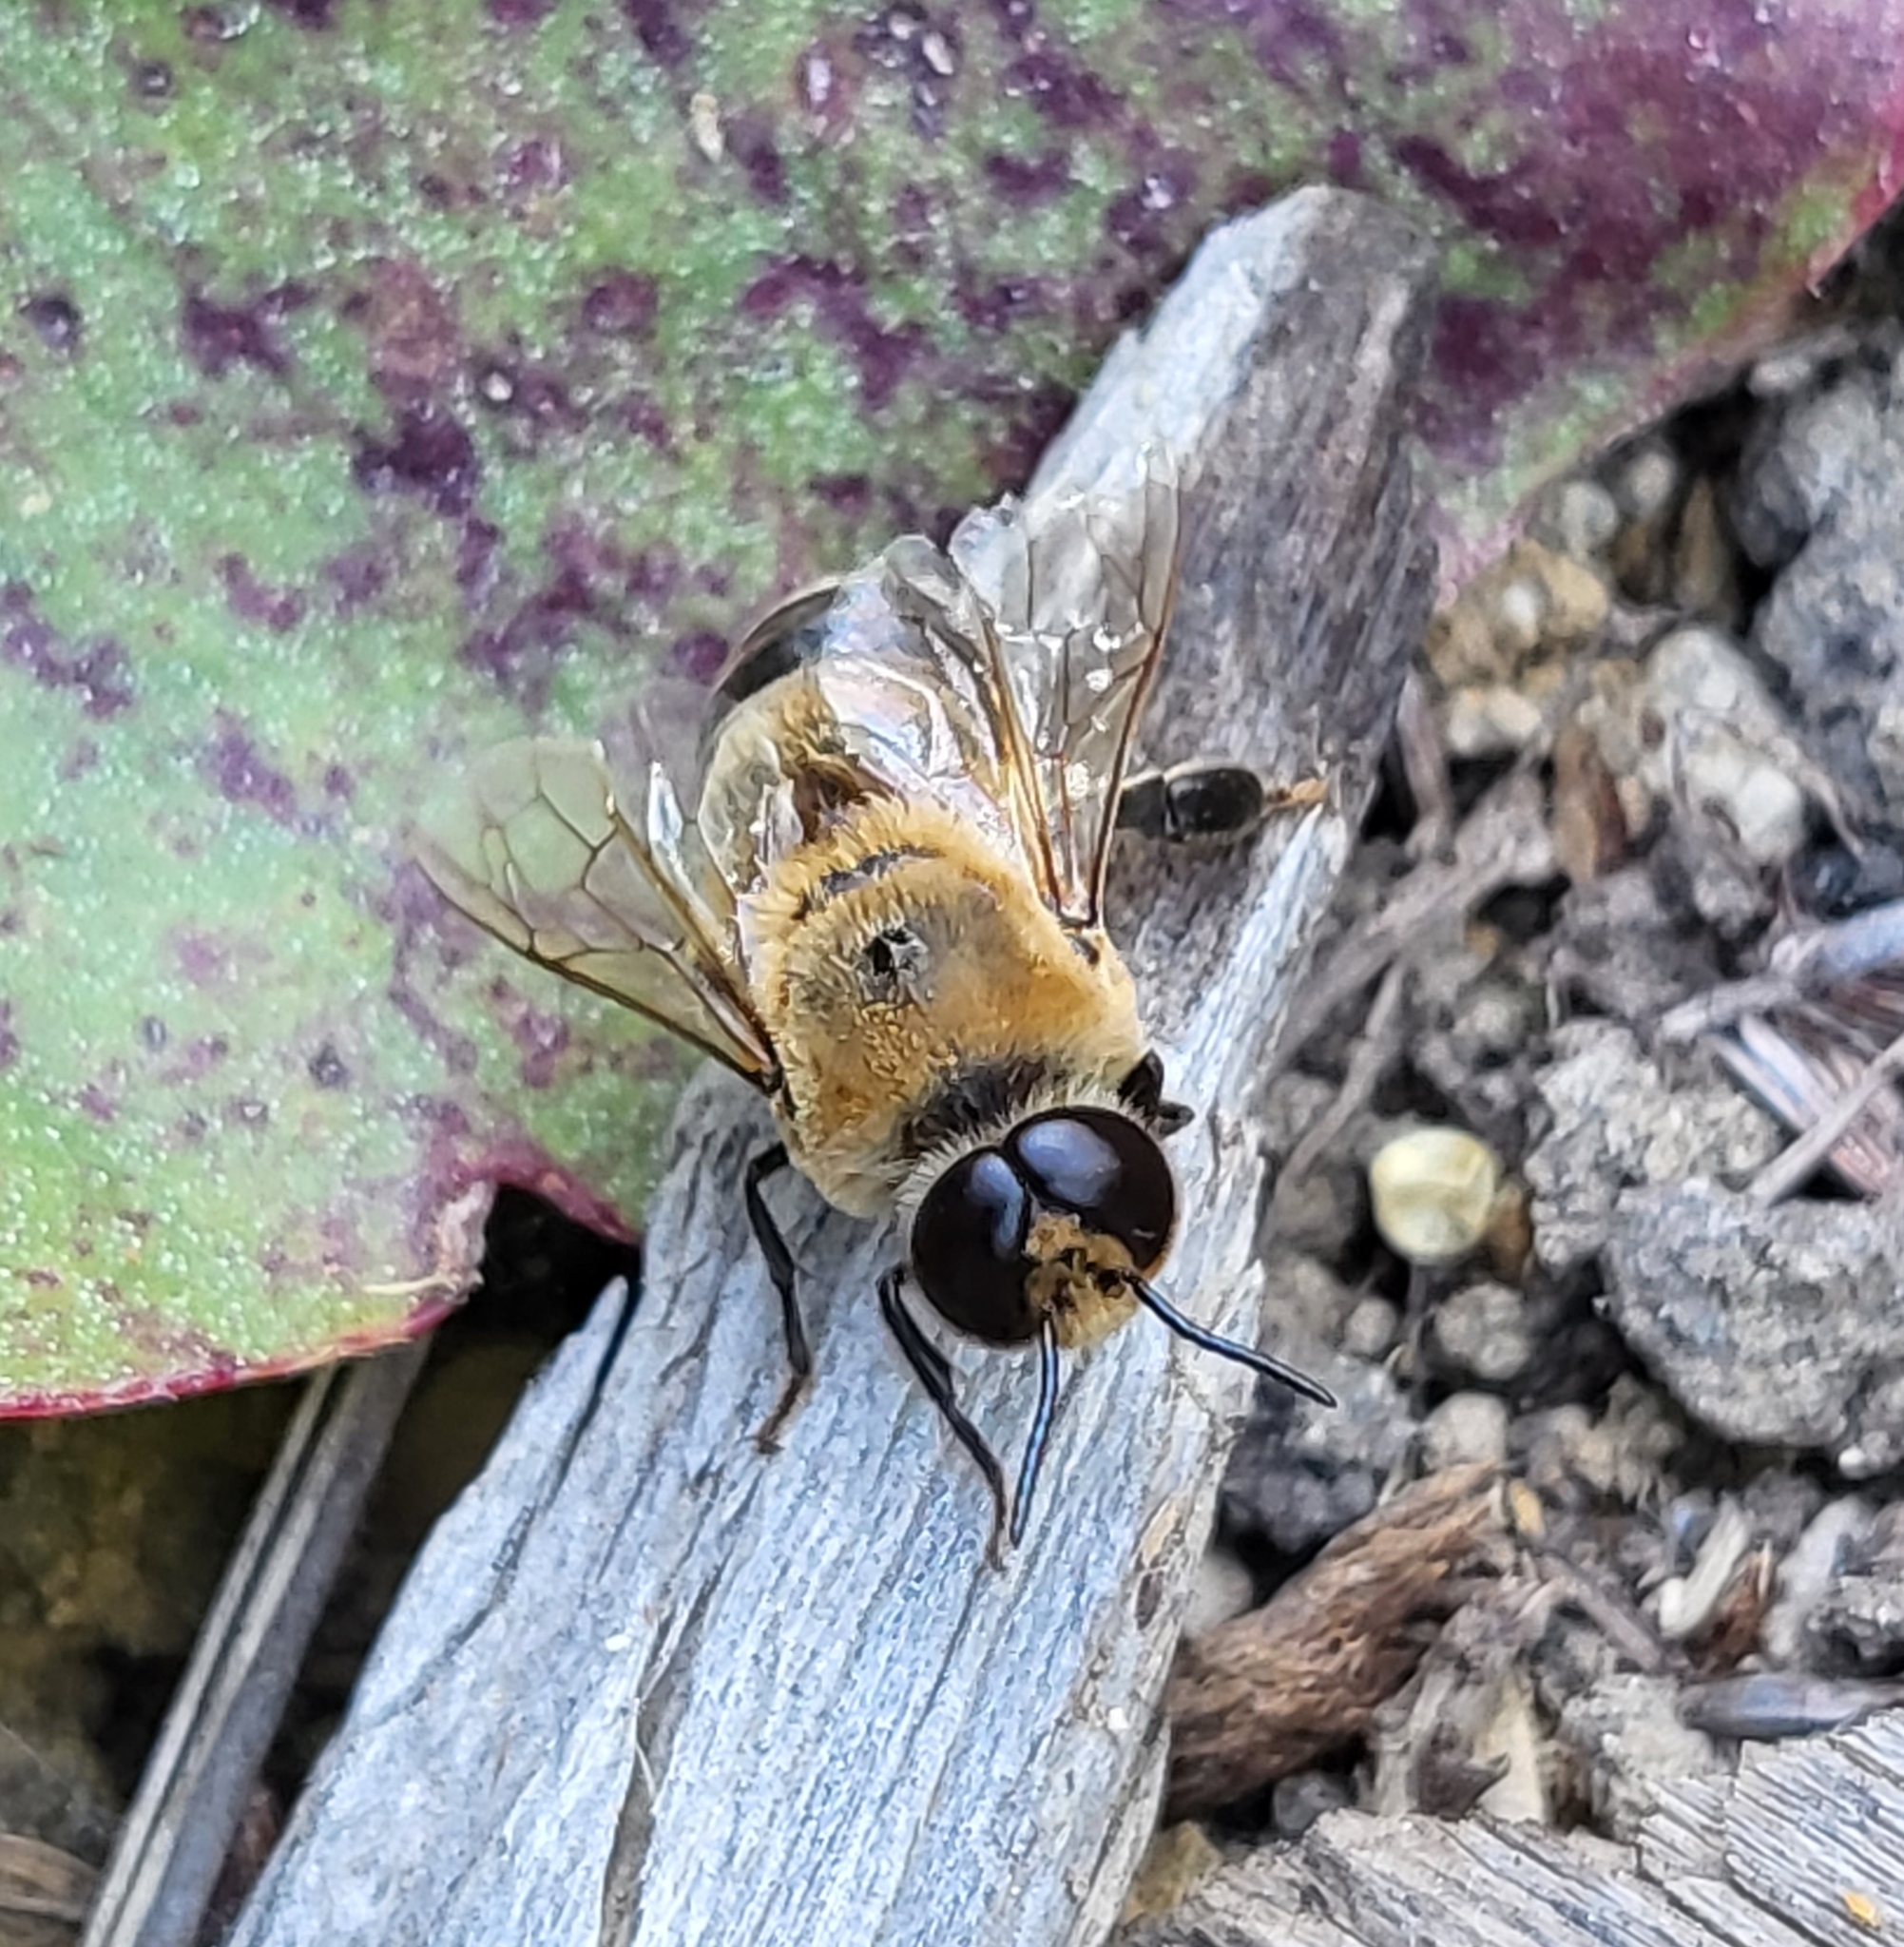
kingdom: Animalia
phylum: Arthropoda
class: Insecta
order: Hymenoptera
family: Apidae
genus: Apis
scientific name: Apis mellifera
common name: Honey bee
